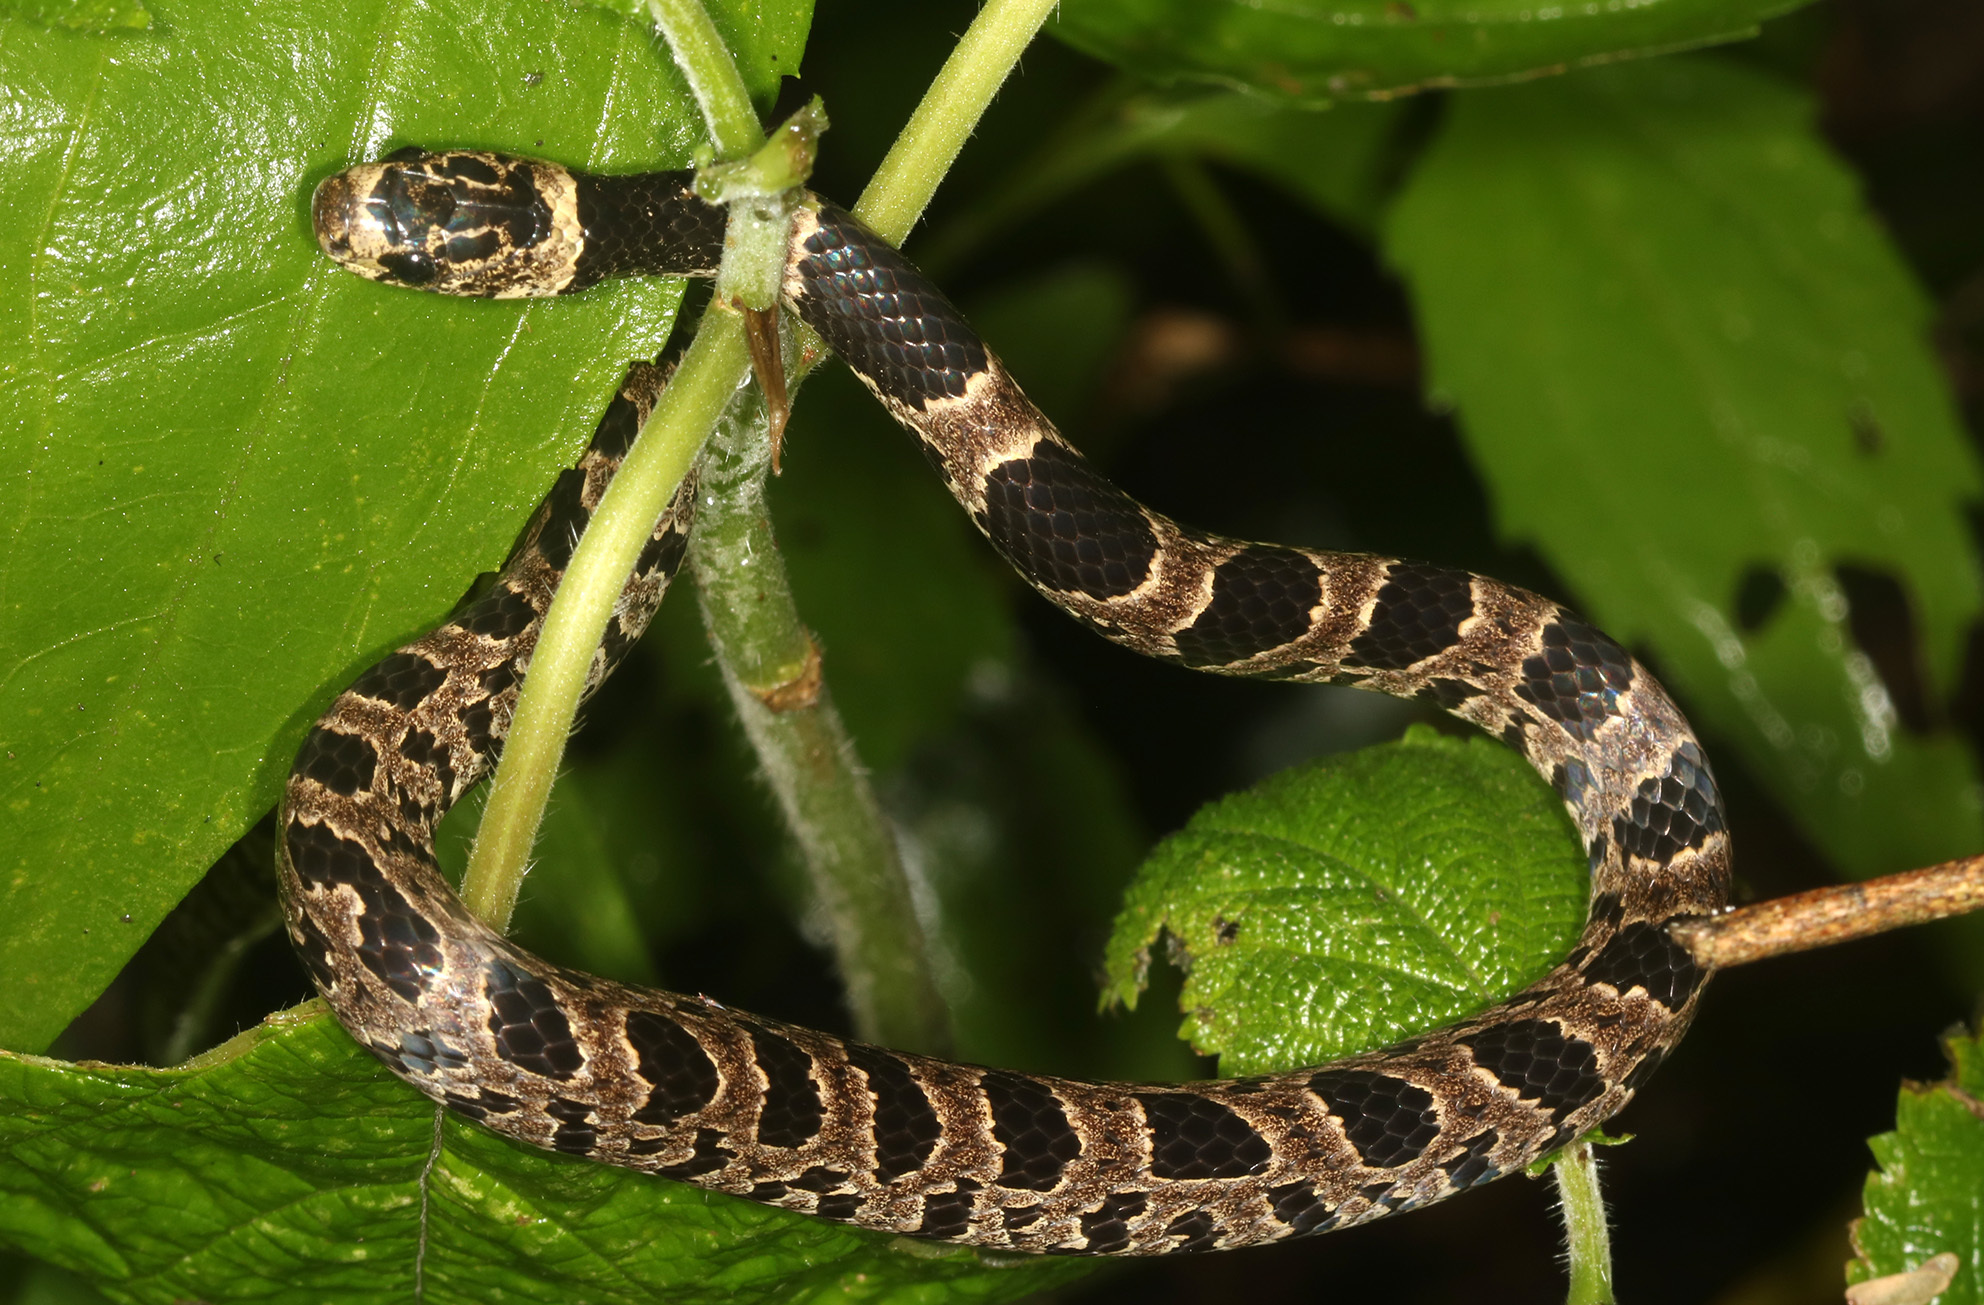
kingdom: Animalia
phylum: Chordata
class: Squamata
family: Colubridae
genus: Dipsas
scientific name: Dipsas turgida
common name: Bolivian tree snake
